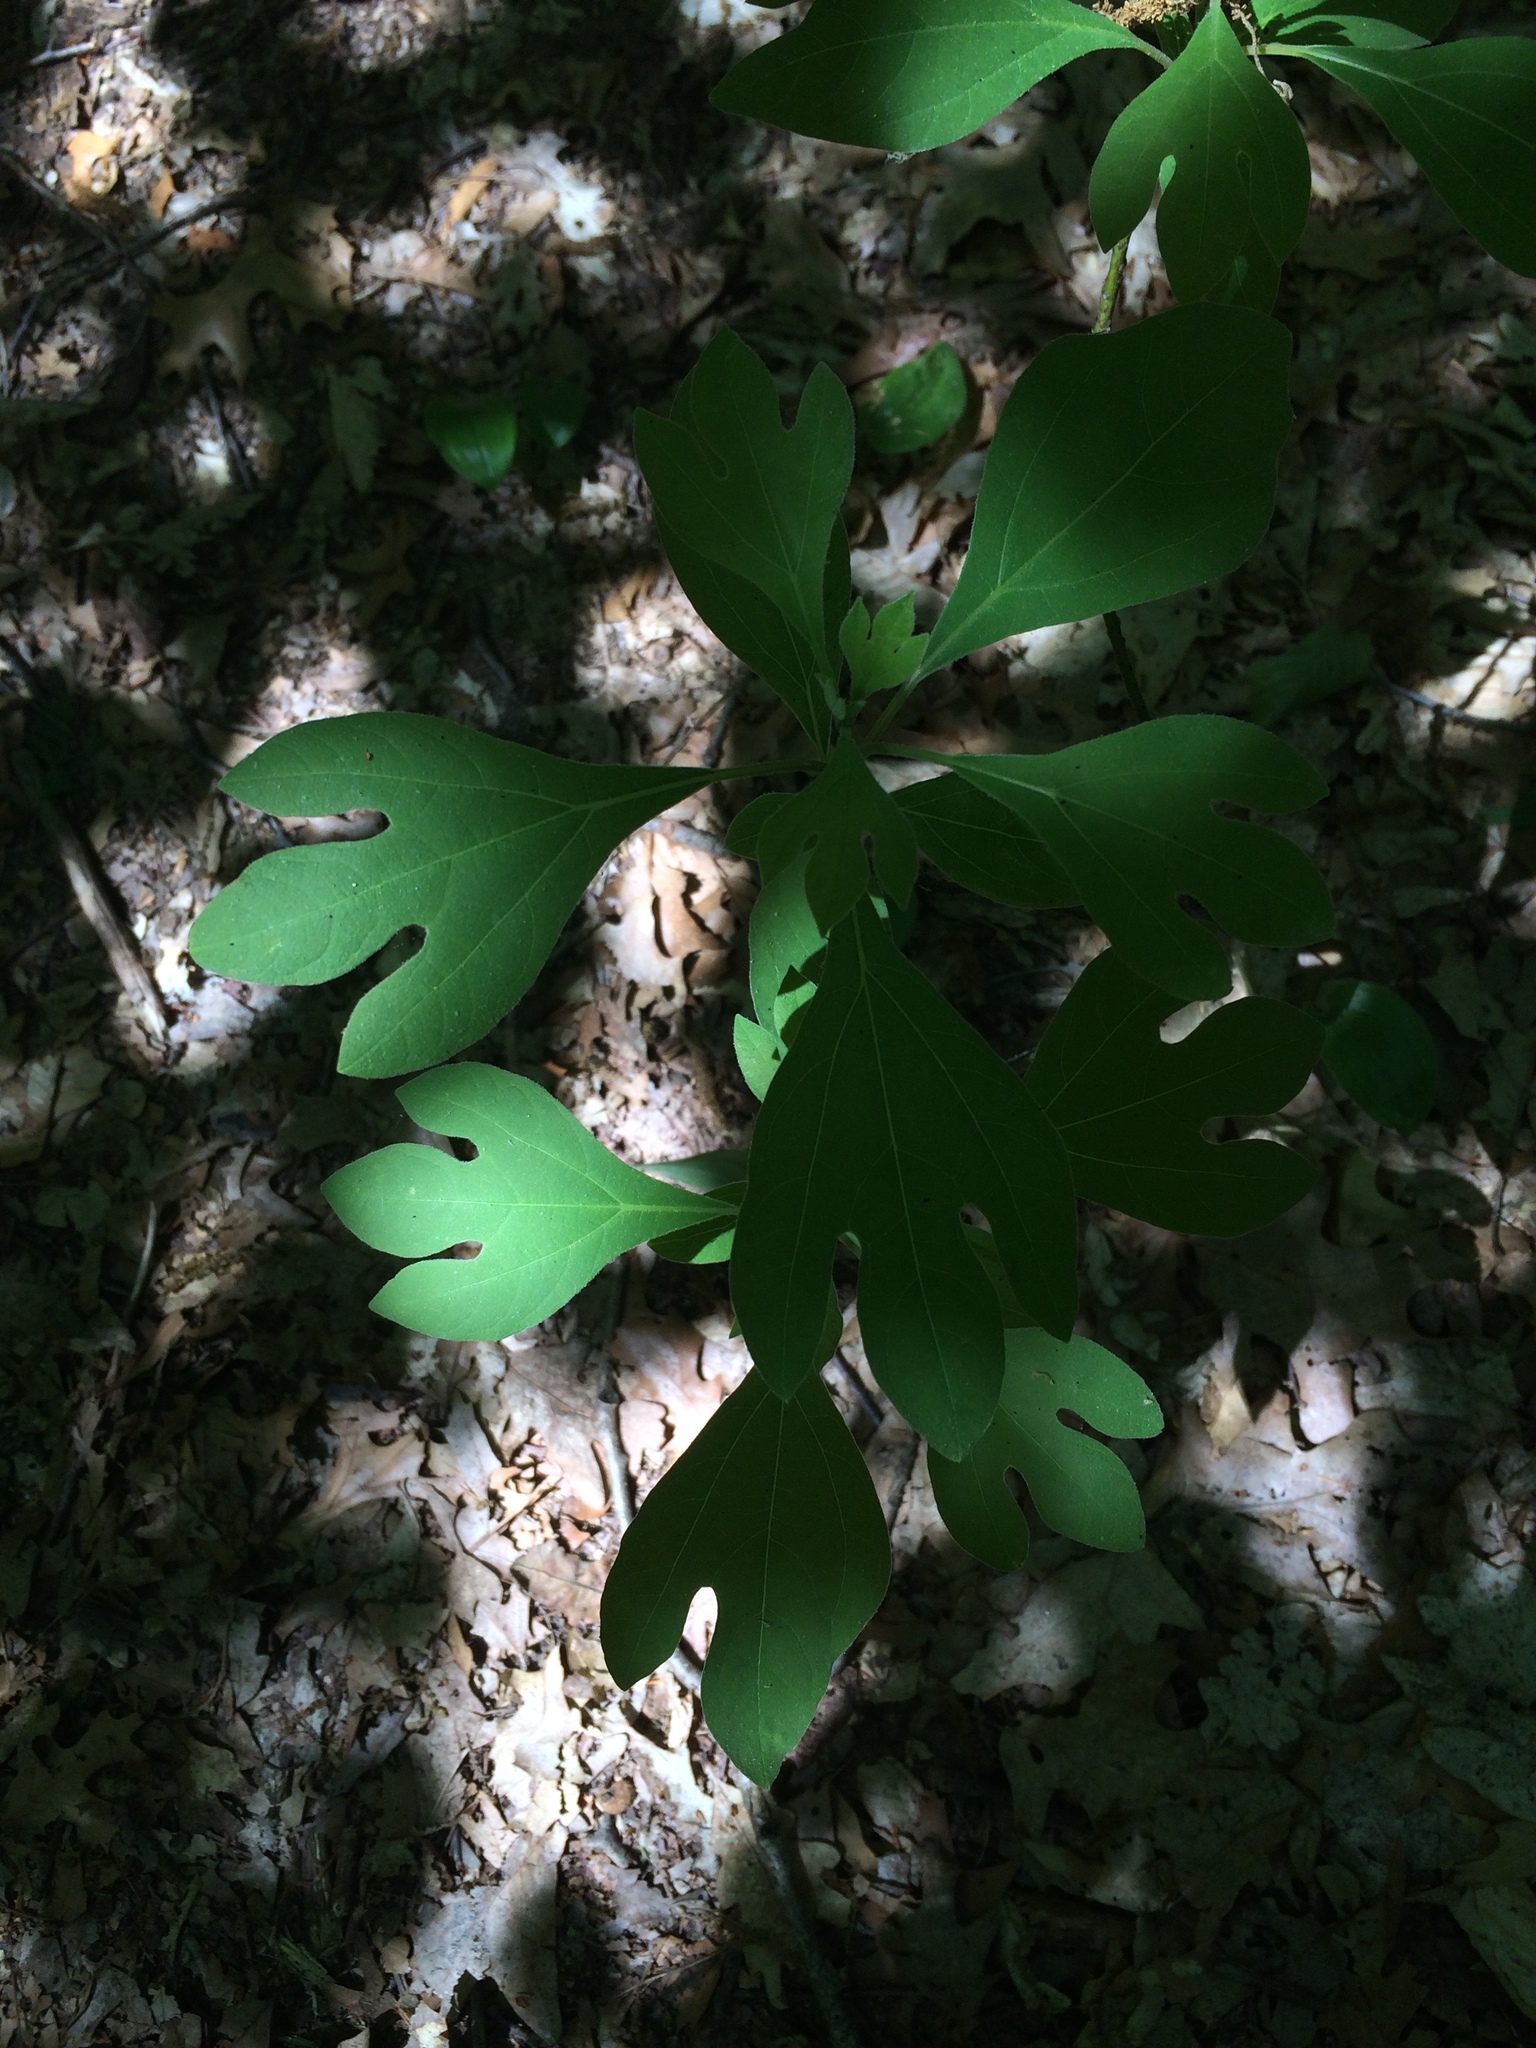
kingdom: Plantae
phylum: Tracheophyta
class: Magnoliopsida
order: Laurales
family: Lauraceae
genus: Sassafras
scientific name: Sassafras albidum
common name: Sassafras
